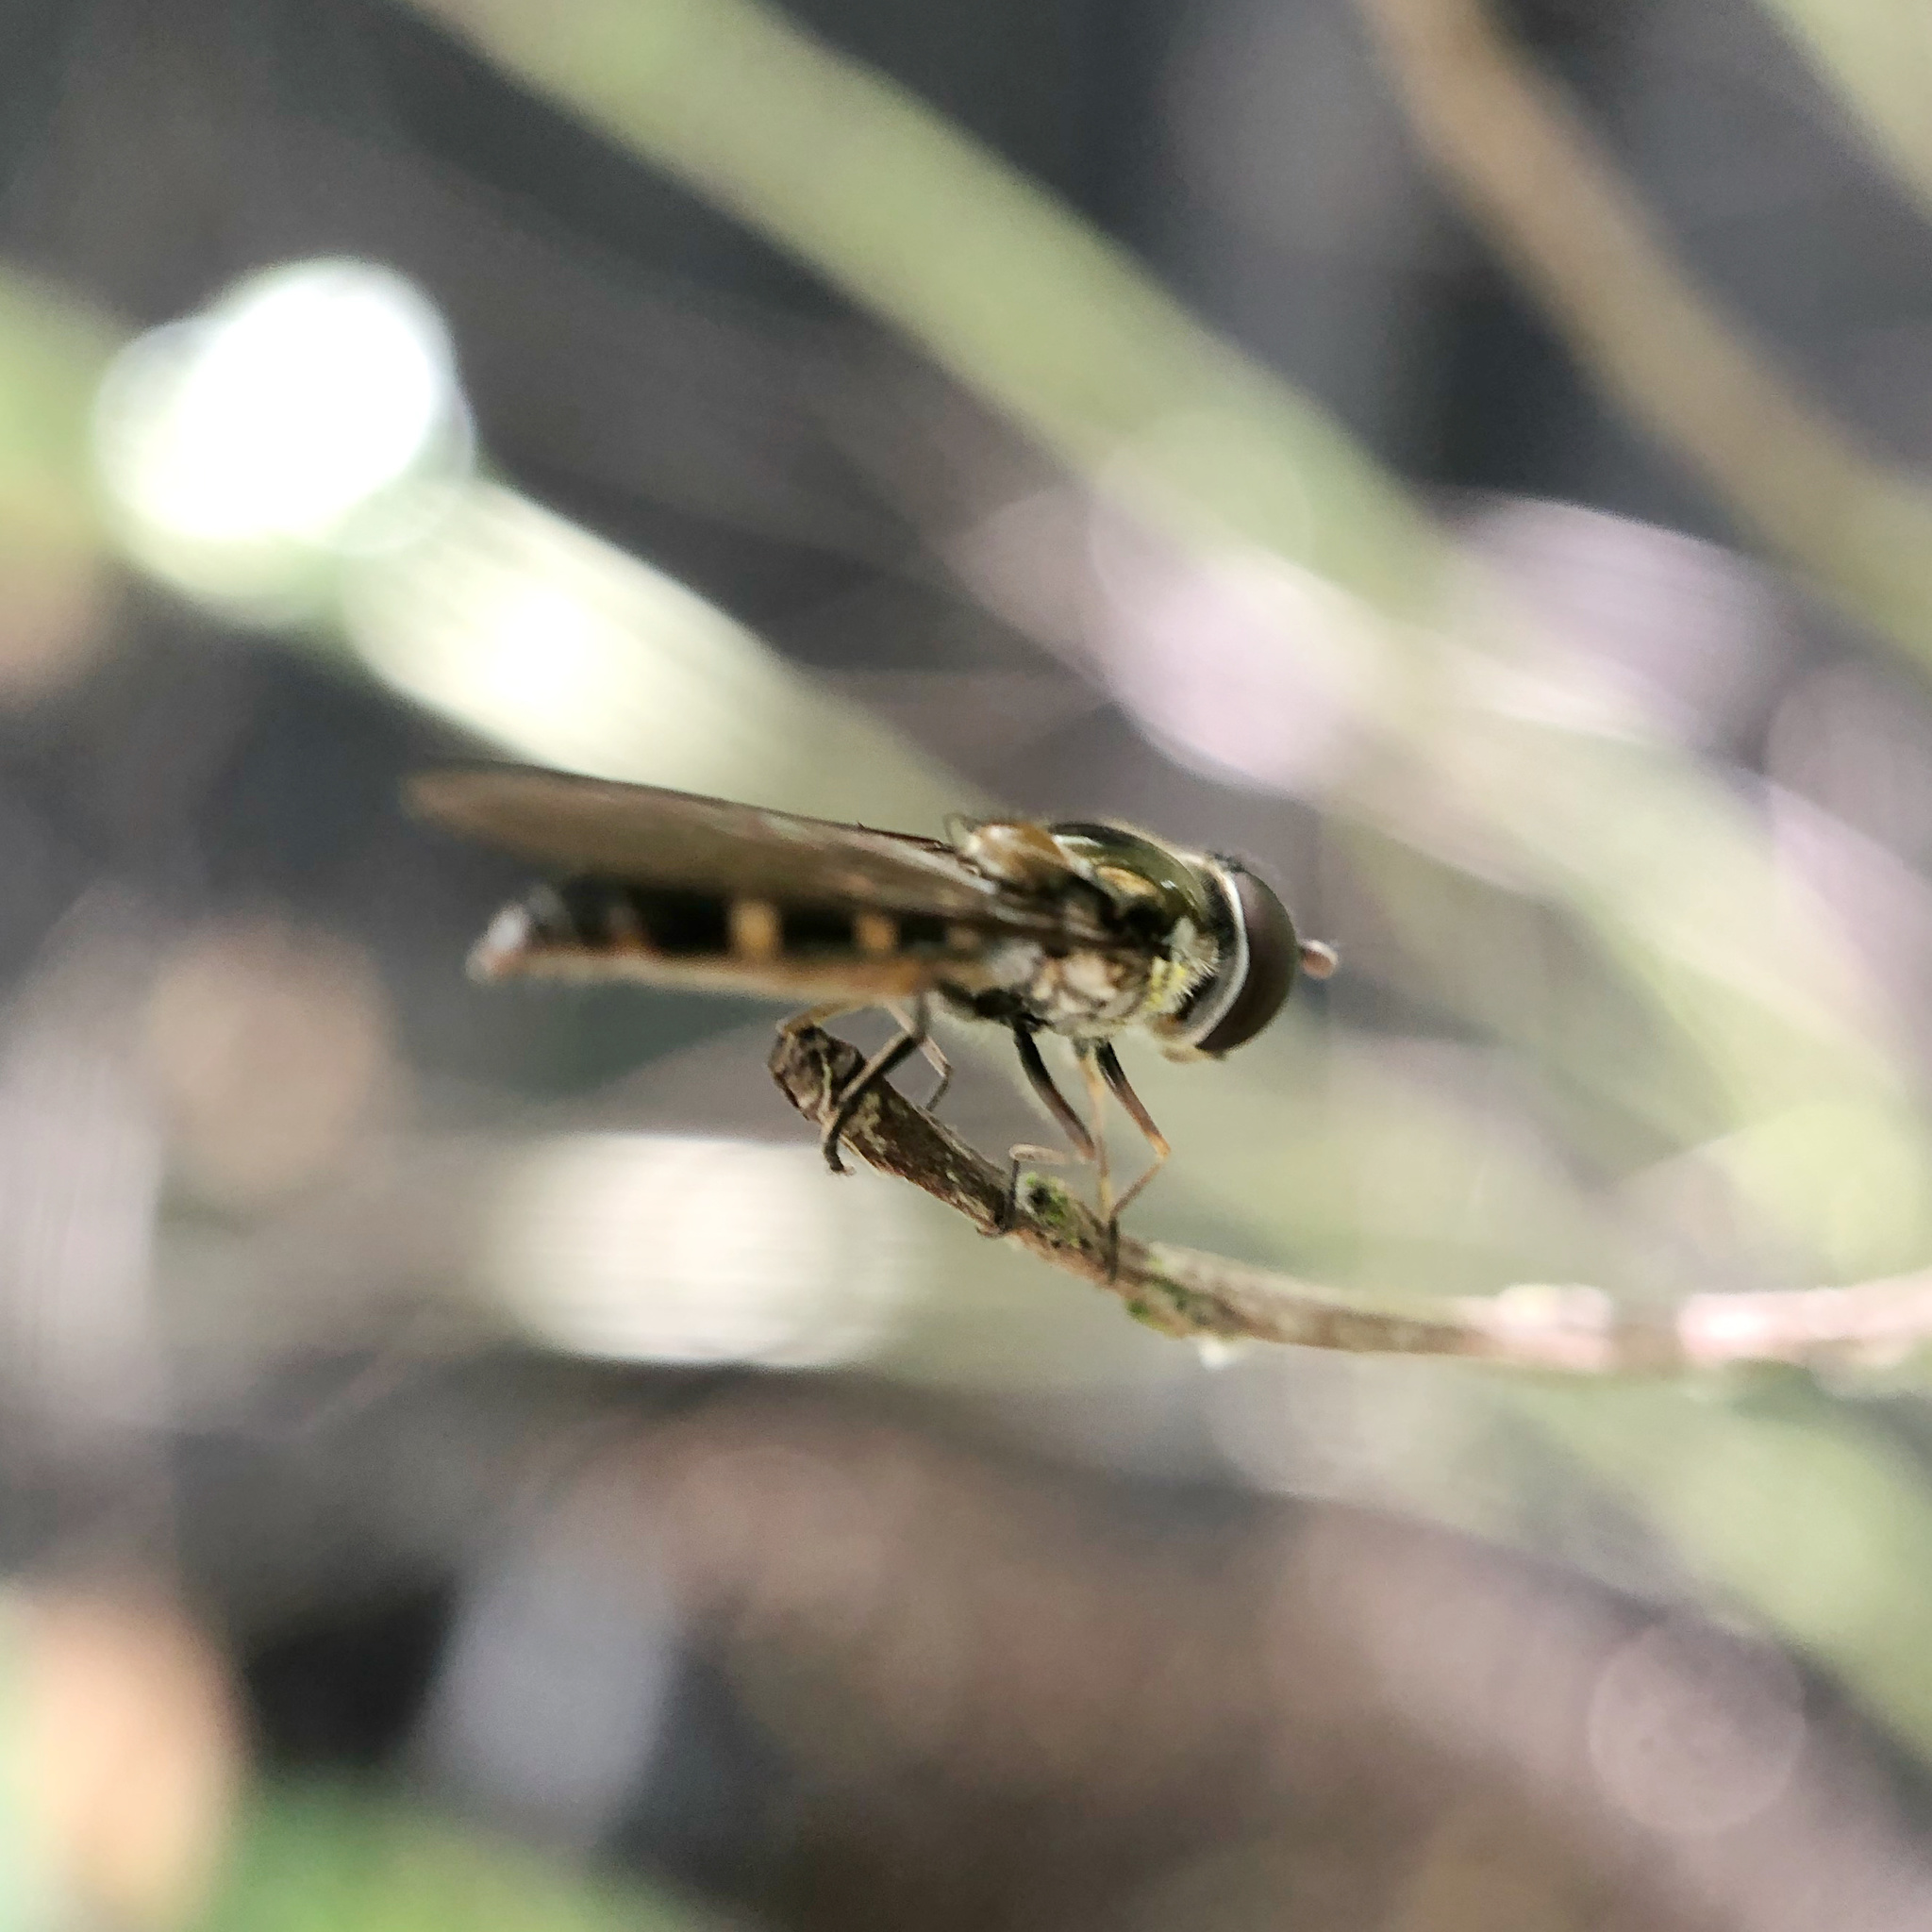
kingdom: Animalia
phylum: Arthropoda
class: Insecta
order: Diptera
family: Syrphidae
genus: Melangyna
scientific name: Melangyna novaezelandiae
